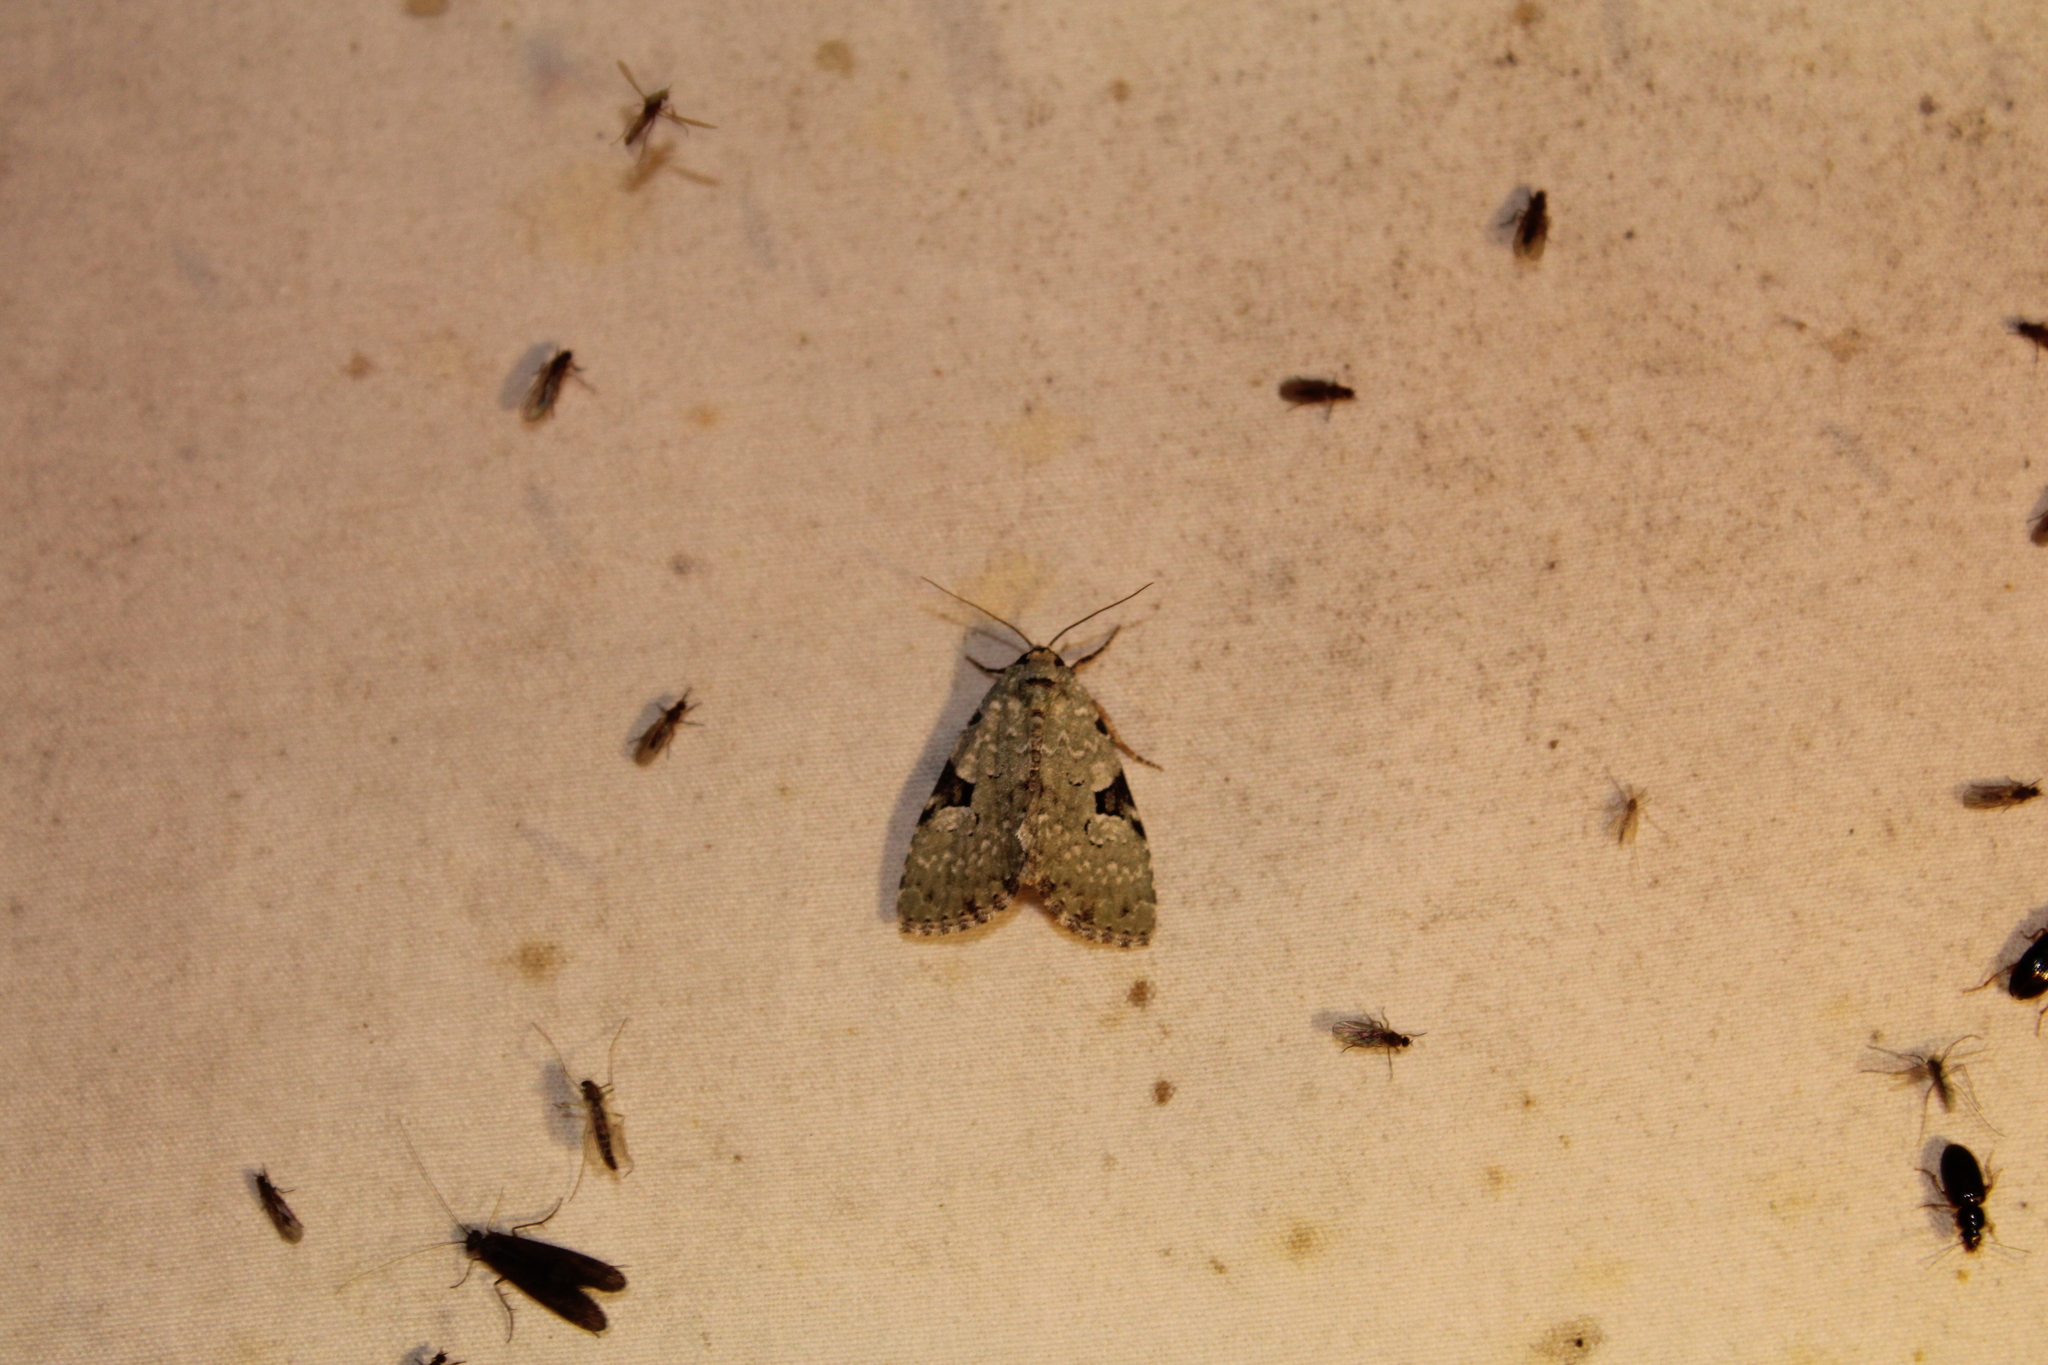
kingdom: Animalia
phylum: Arthropoda
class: Insecta
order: Lepidoptera
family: Noctuidae
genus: Leuconycta
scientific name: Leuconycta diphteroides
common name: Green leuconycta moth
